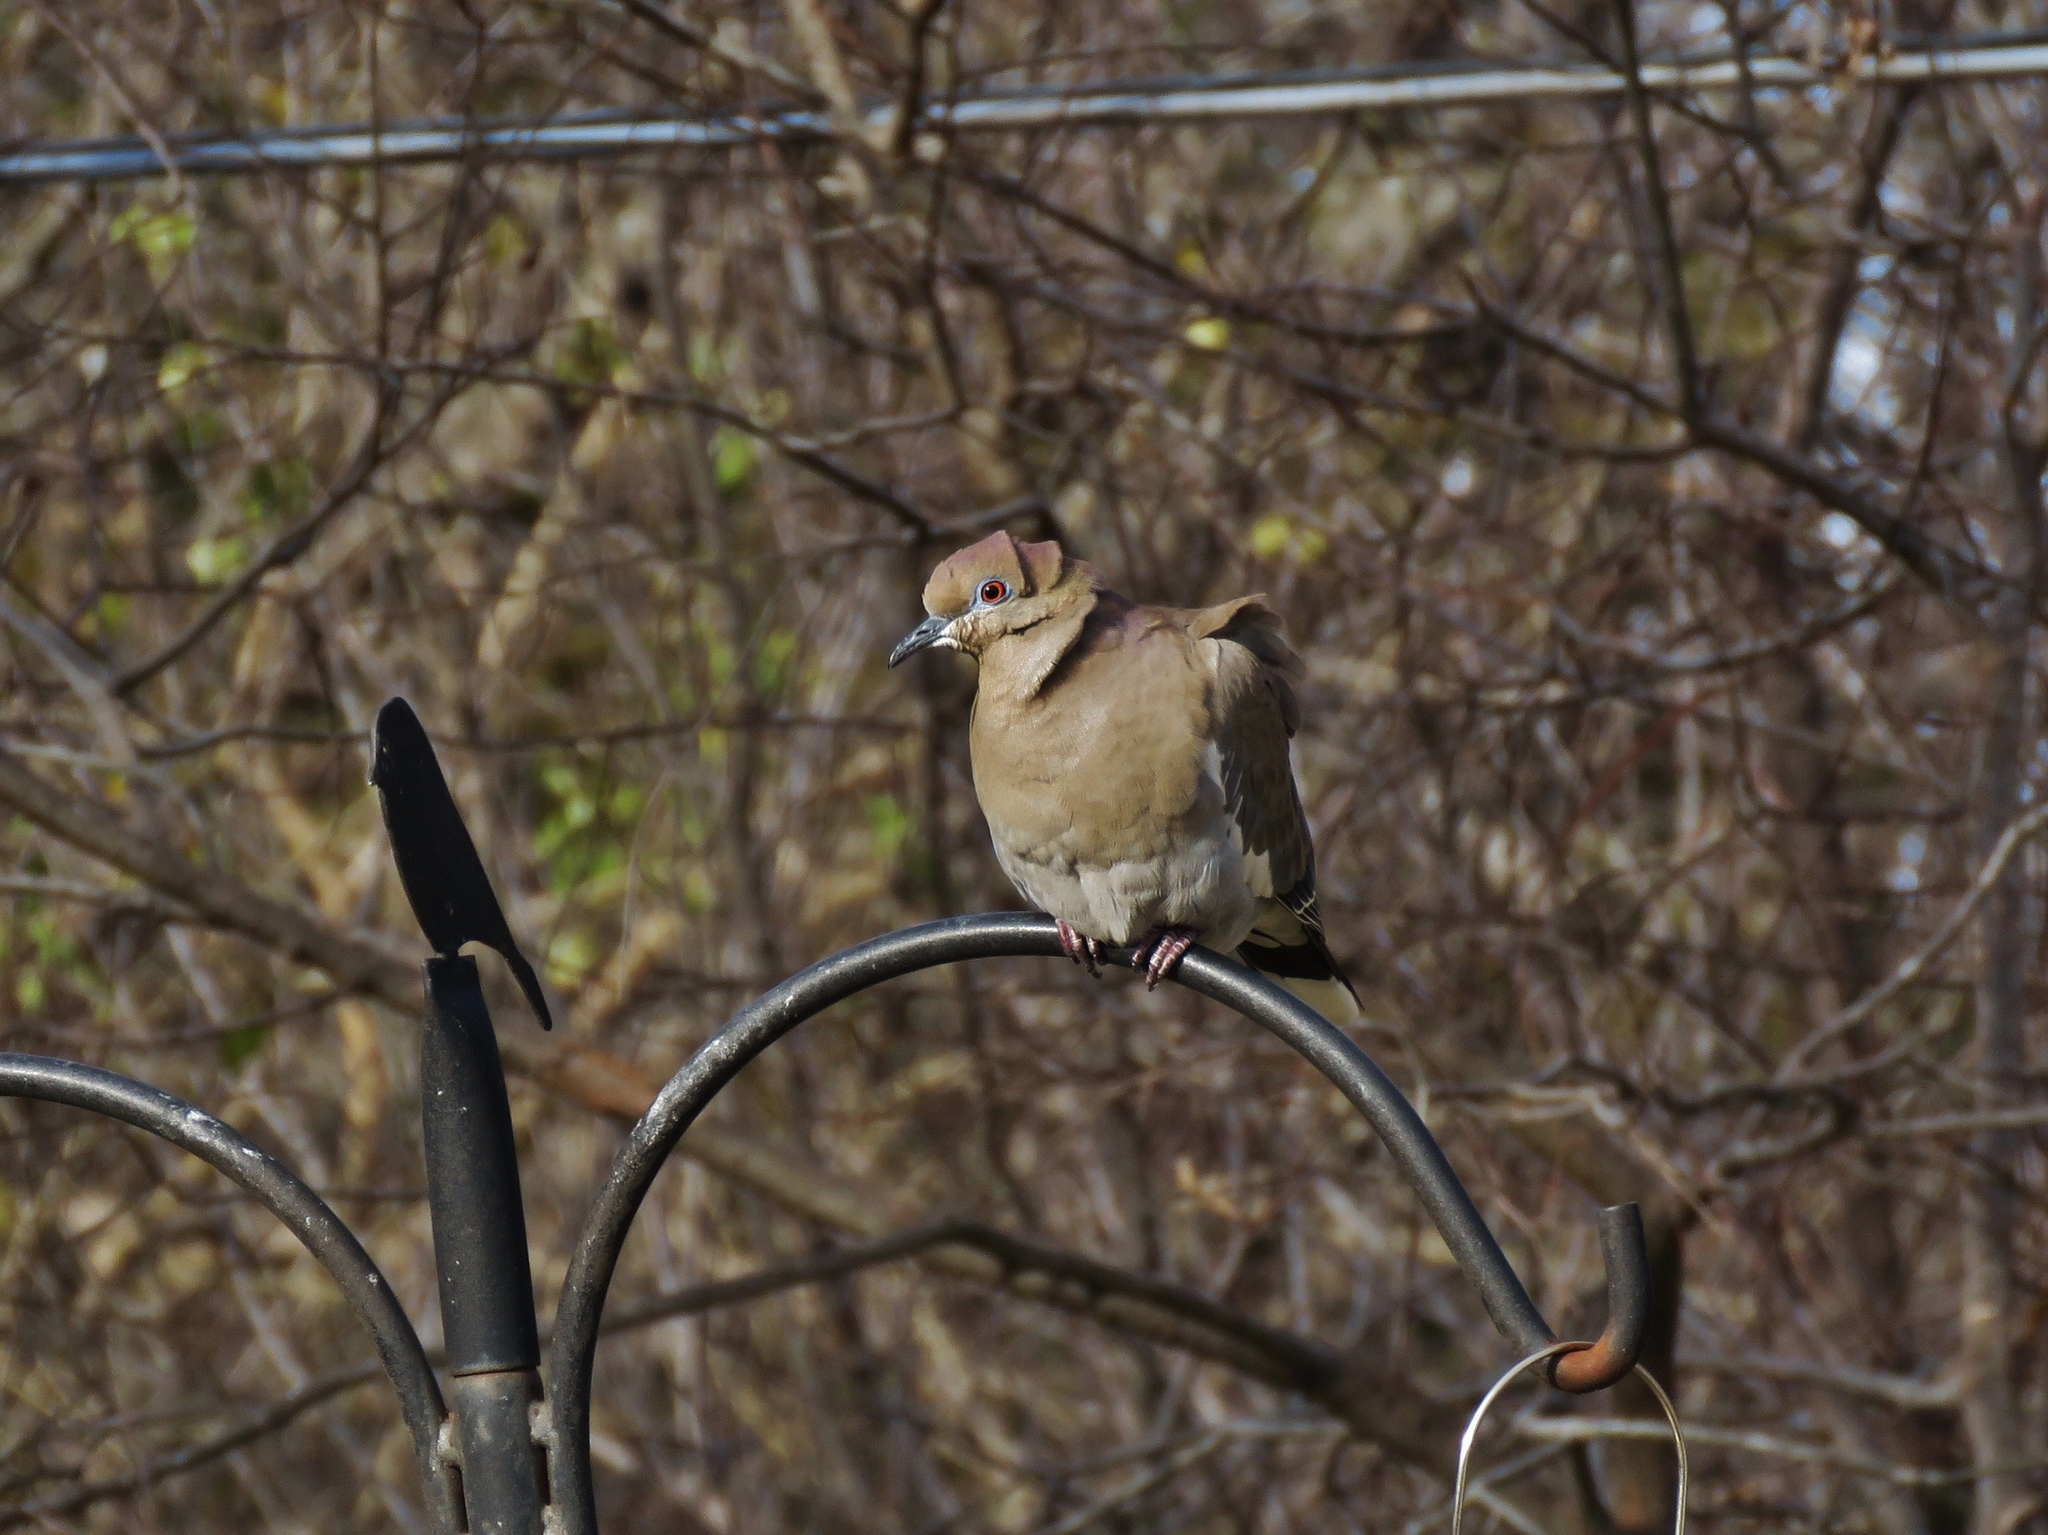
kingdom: Animalia
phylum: Chordata
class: Aves
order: Columbiformes
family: Columbidae
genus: Zenaida
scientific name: Zenaida asiatica
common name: White-winged dove
